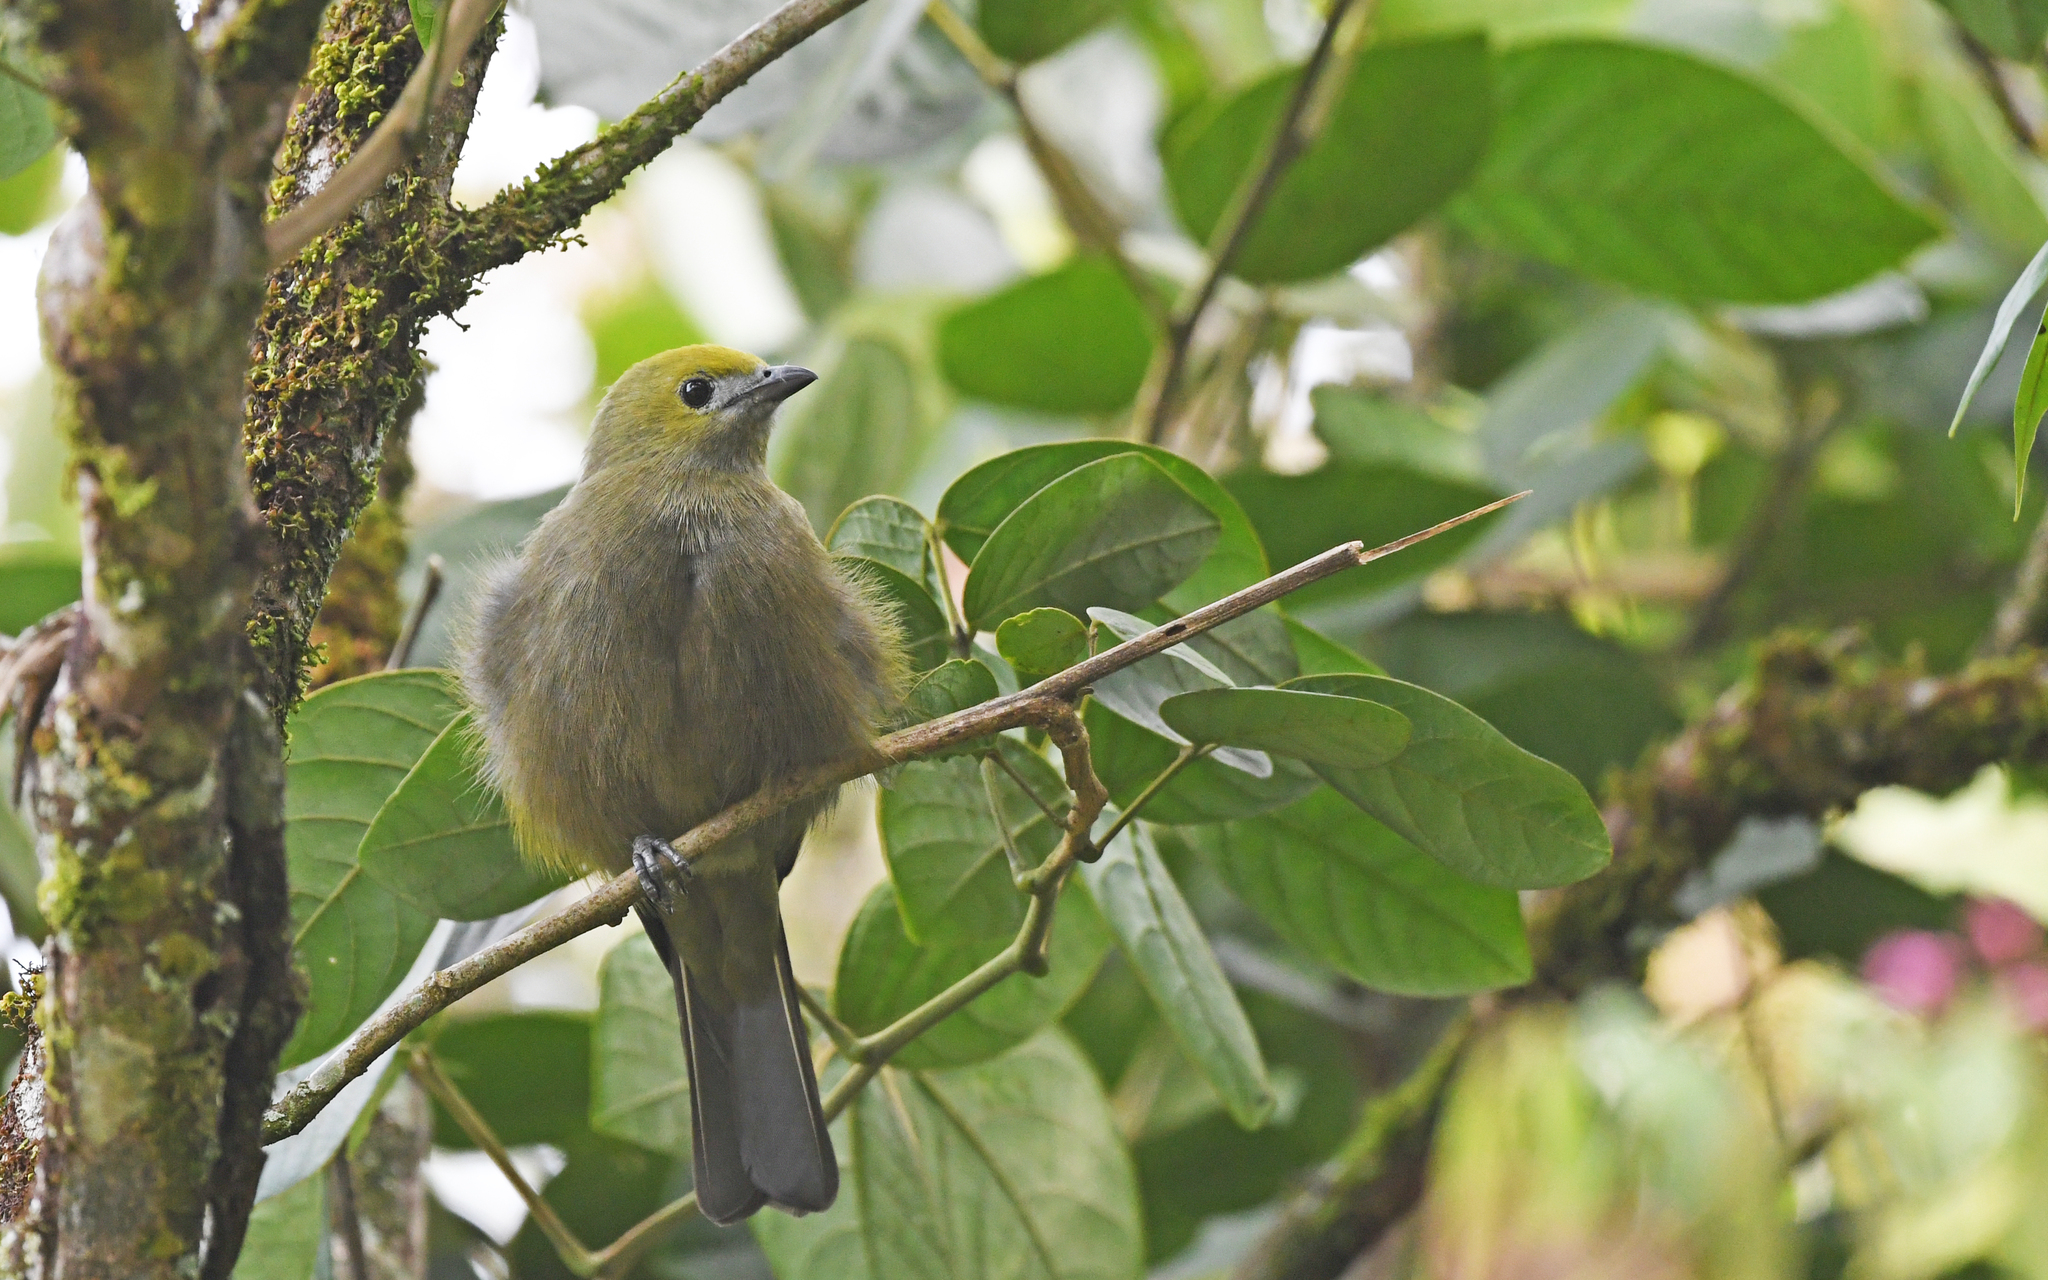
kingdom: Animalia
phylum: Chordata
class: Aves
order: Passeriformes
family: Thraupidae
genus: Thraupis
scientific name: Thraupis palmarum
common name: Palm tanager
